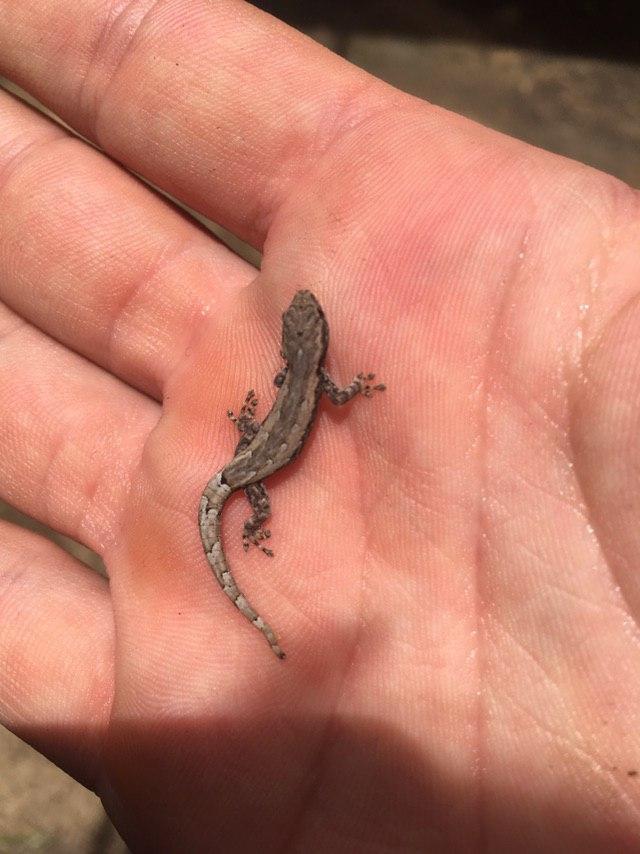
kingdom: Animalia
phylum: Chordata
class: Squamata
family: Gekkonidae
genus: Lygodactylus
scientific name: Lygodactylus verticillatus
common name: Mocquard's dwarf gecko
